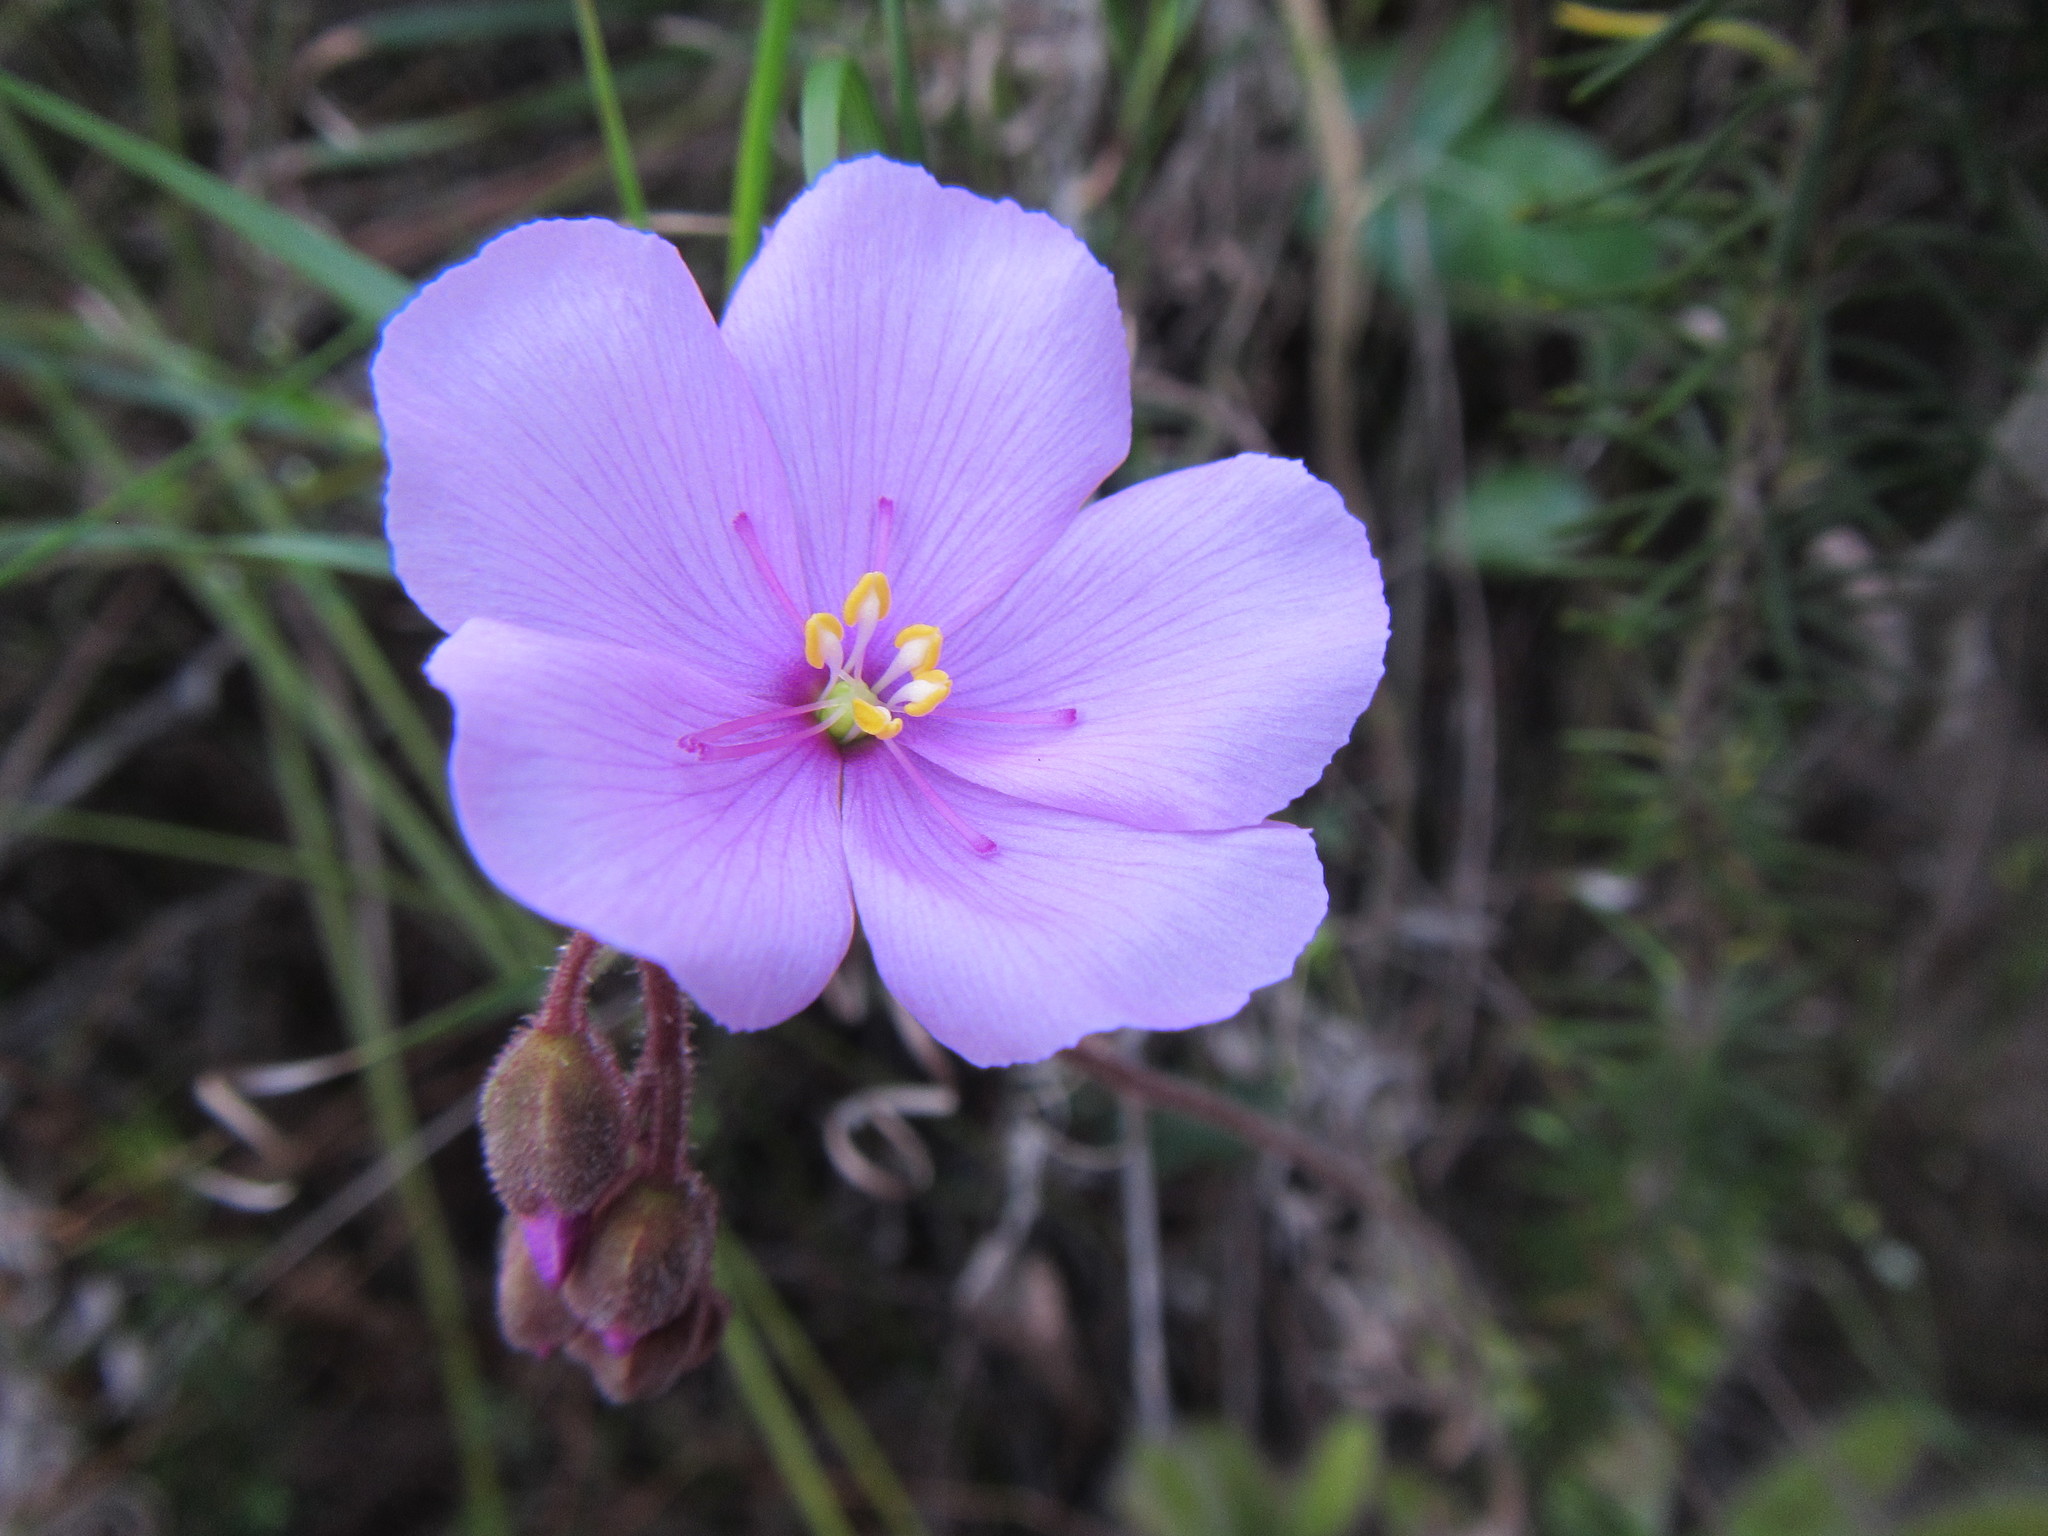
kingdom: Plantae
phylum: Tracheophyta
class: Magnoliopsida
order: Caryophyllales
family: Droseraceae
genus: Drosera
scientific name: Drosera hilaris
